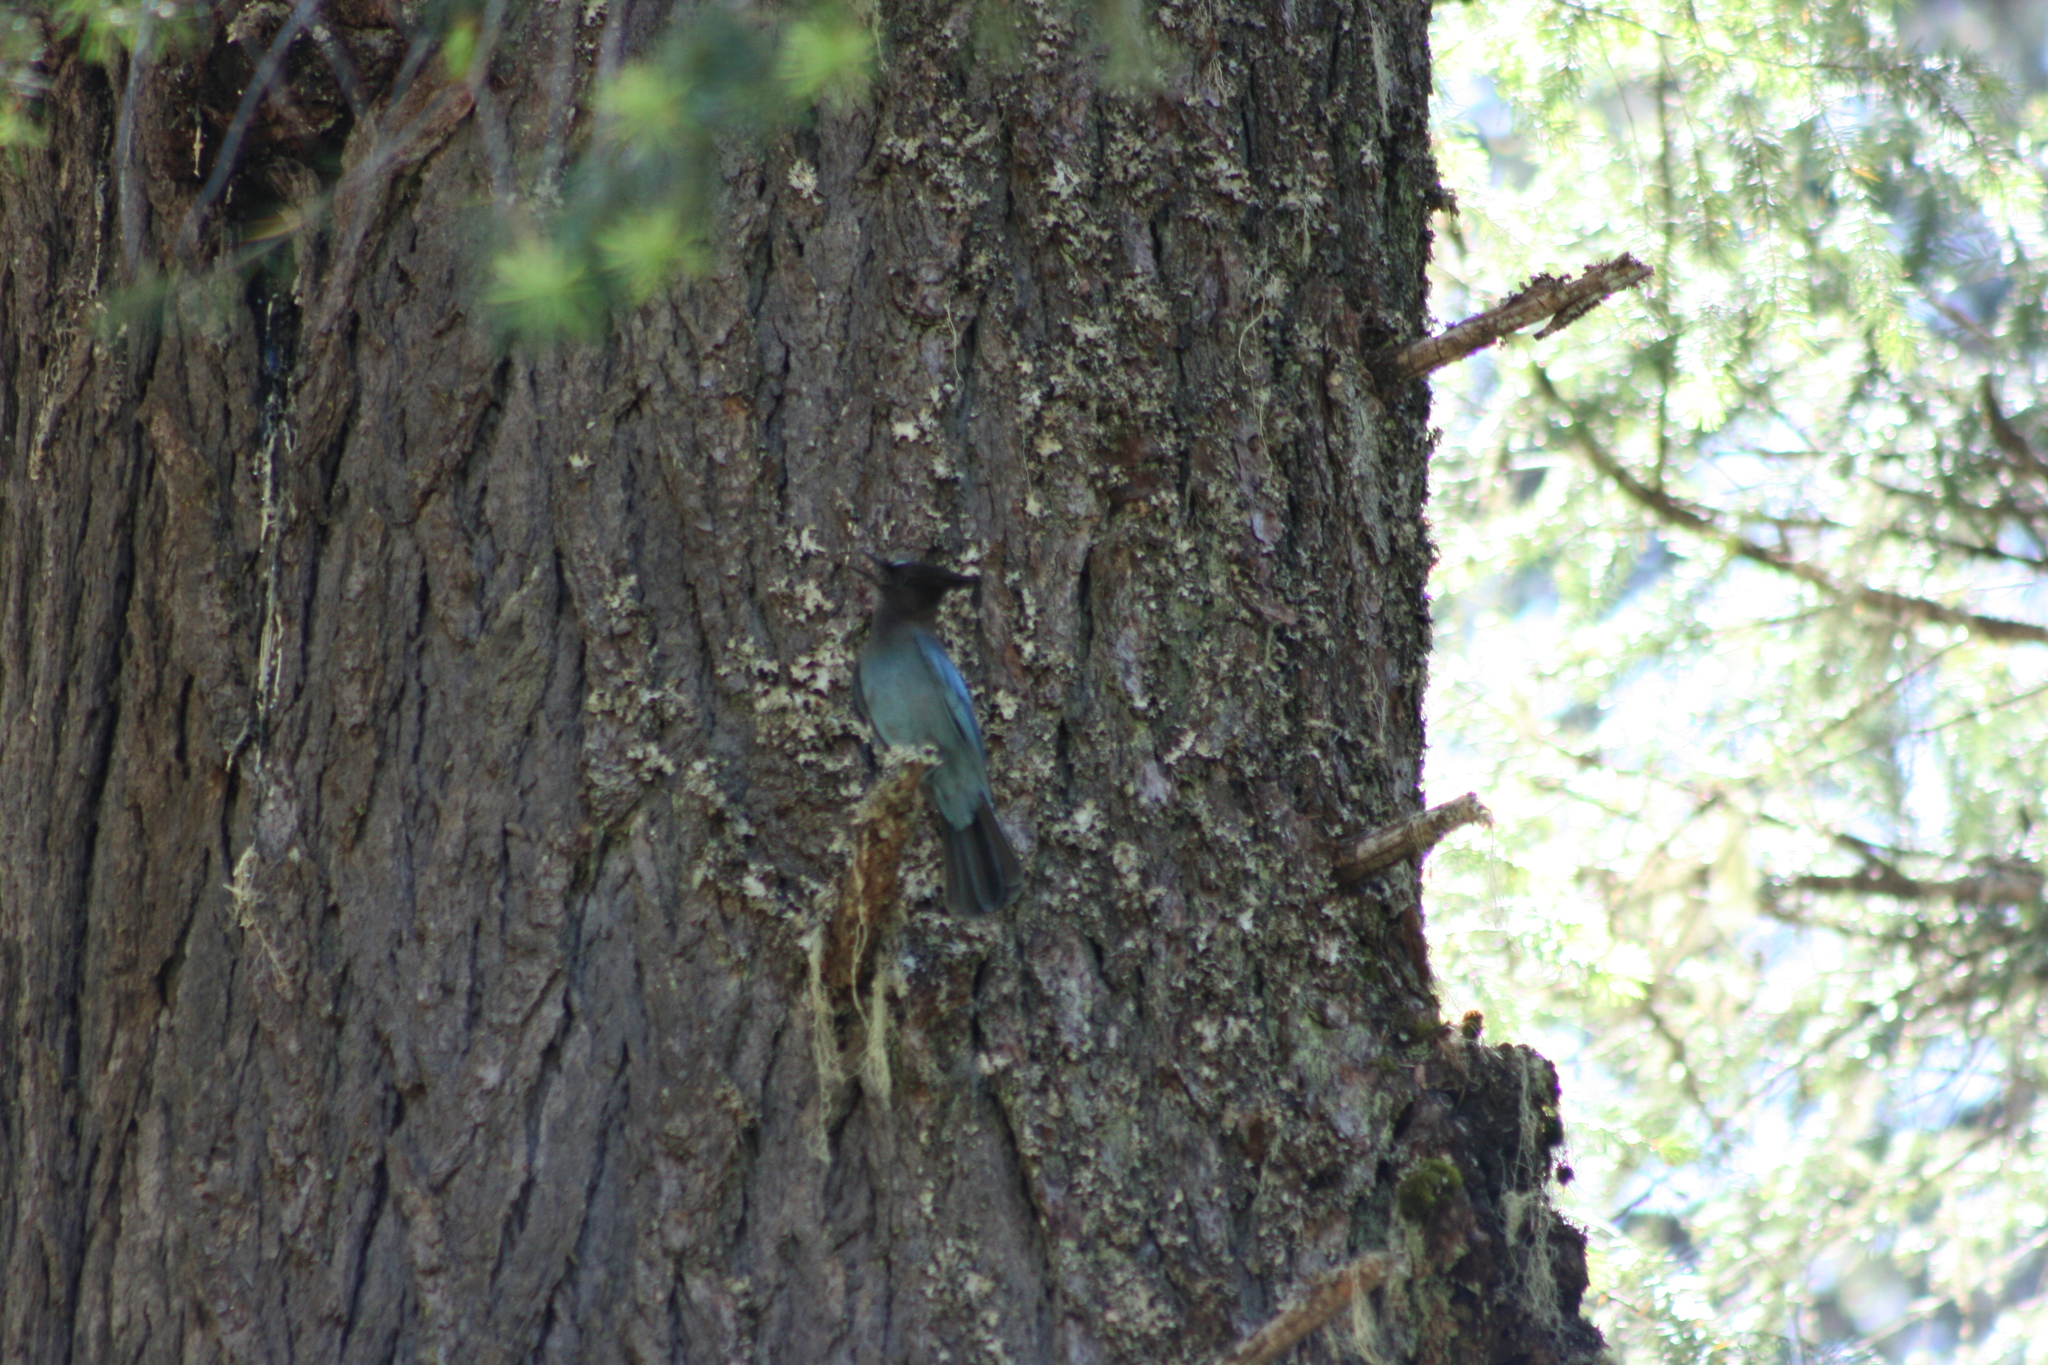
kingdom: Animalia
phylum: Chordata
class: Aves
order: Passeriformes
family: Corvidae
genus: Cyanocitta
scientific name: Cyanocitta stelleri
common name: Steller's jay
